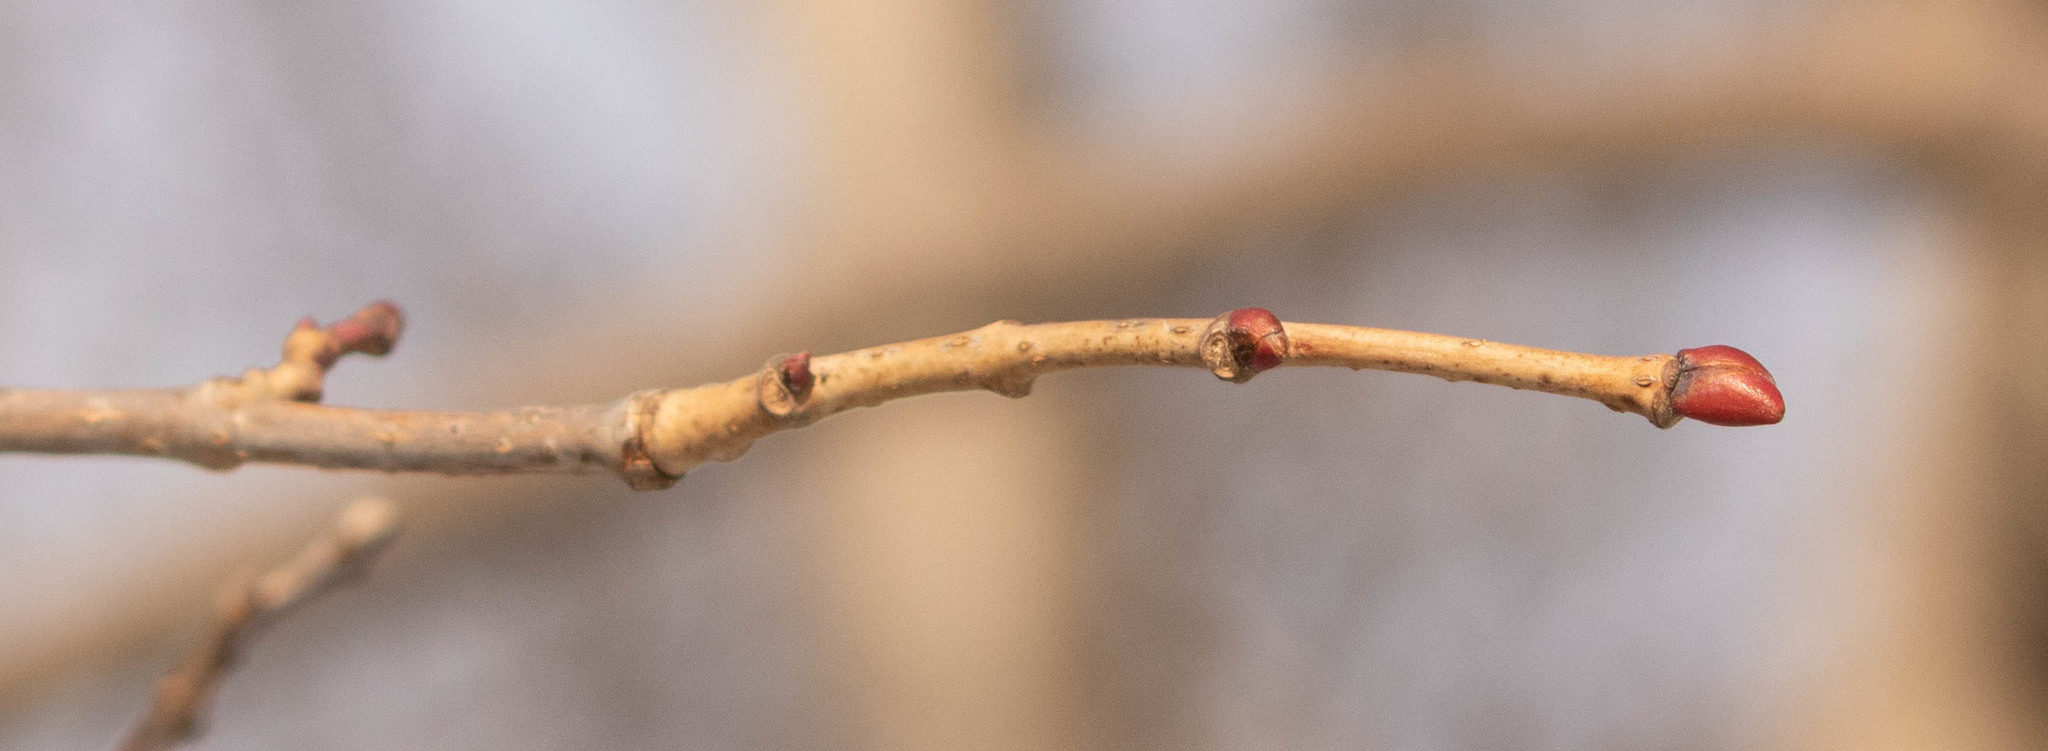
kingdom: Plantae
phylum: Tracheophyta
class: Magnoliopsida
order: Malvales
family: Malvaceae
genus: Tilia
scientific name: Tilia americana
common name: Basswood
